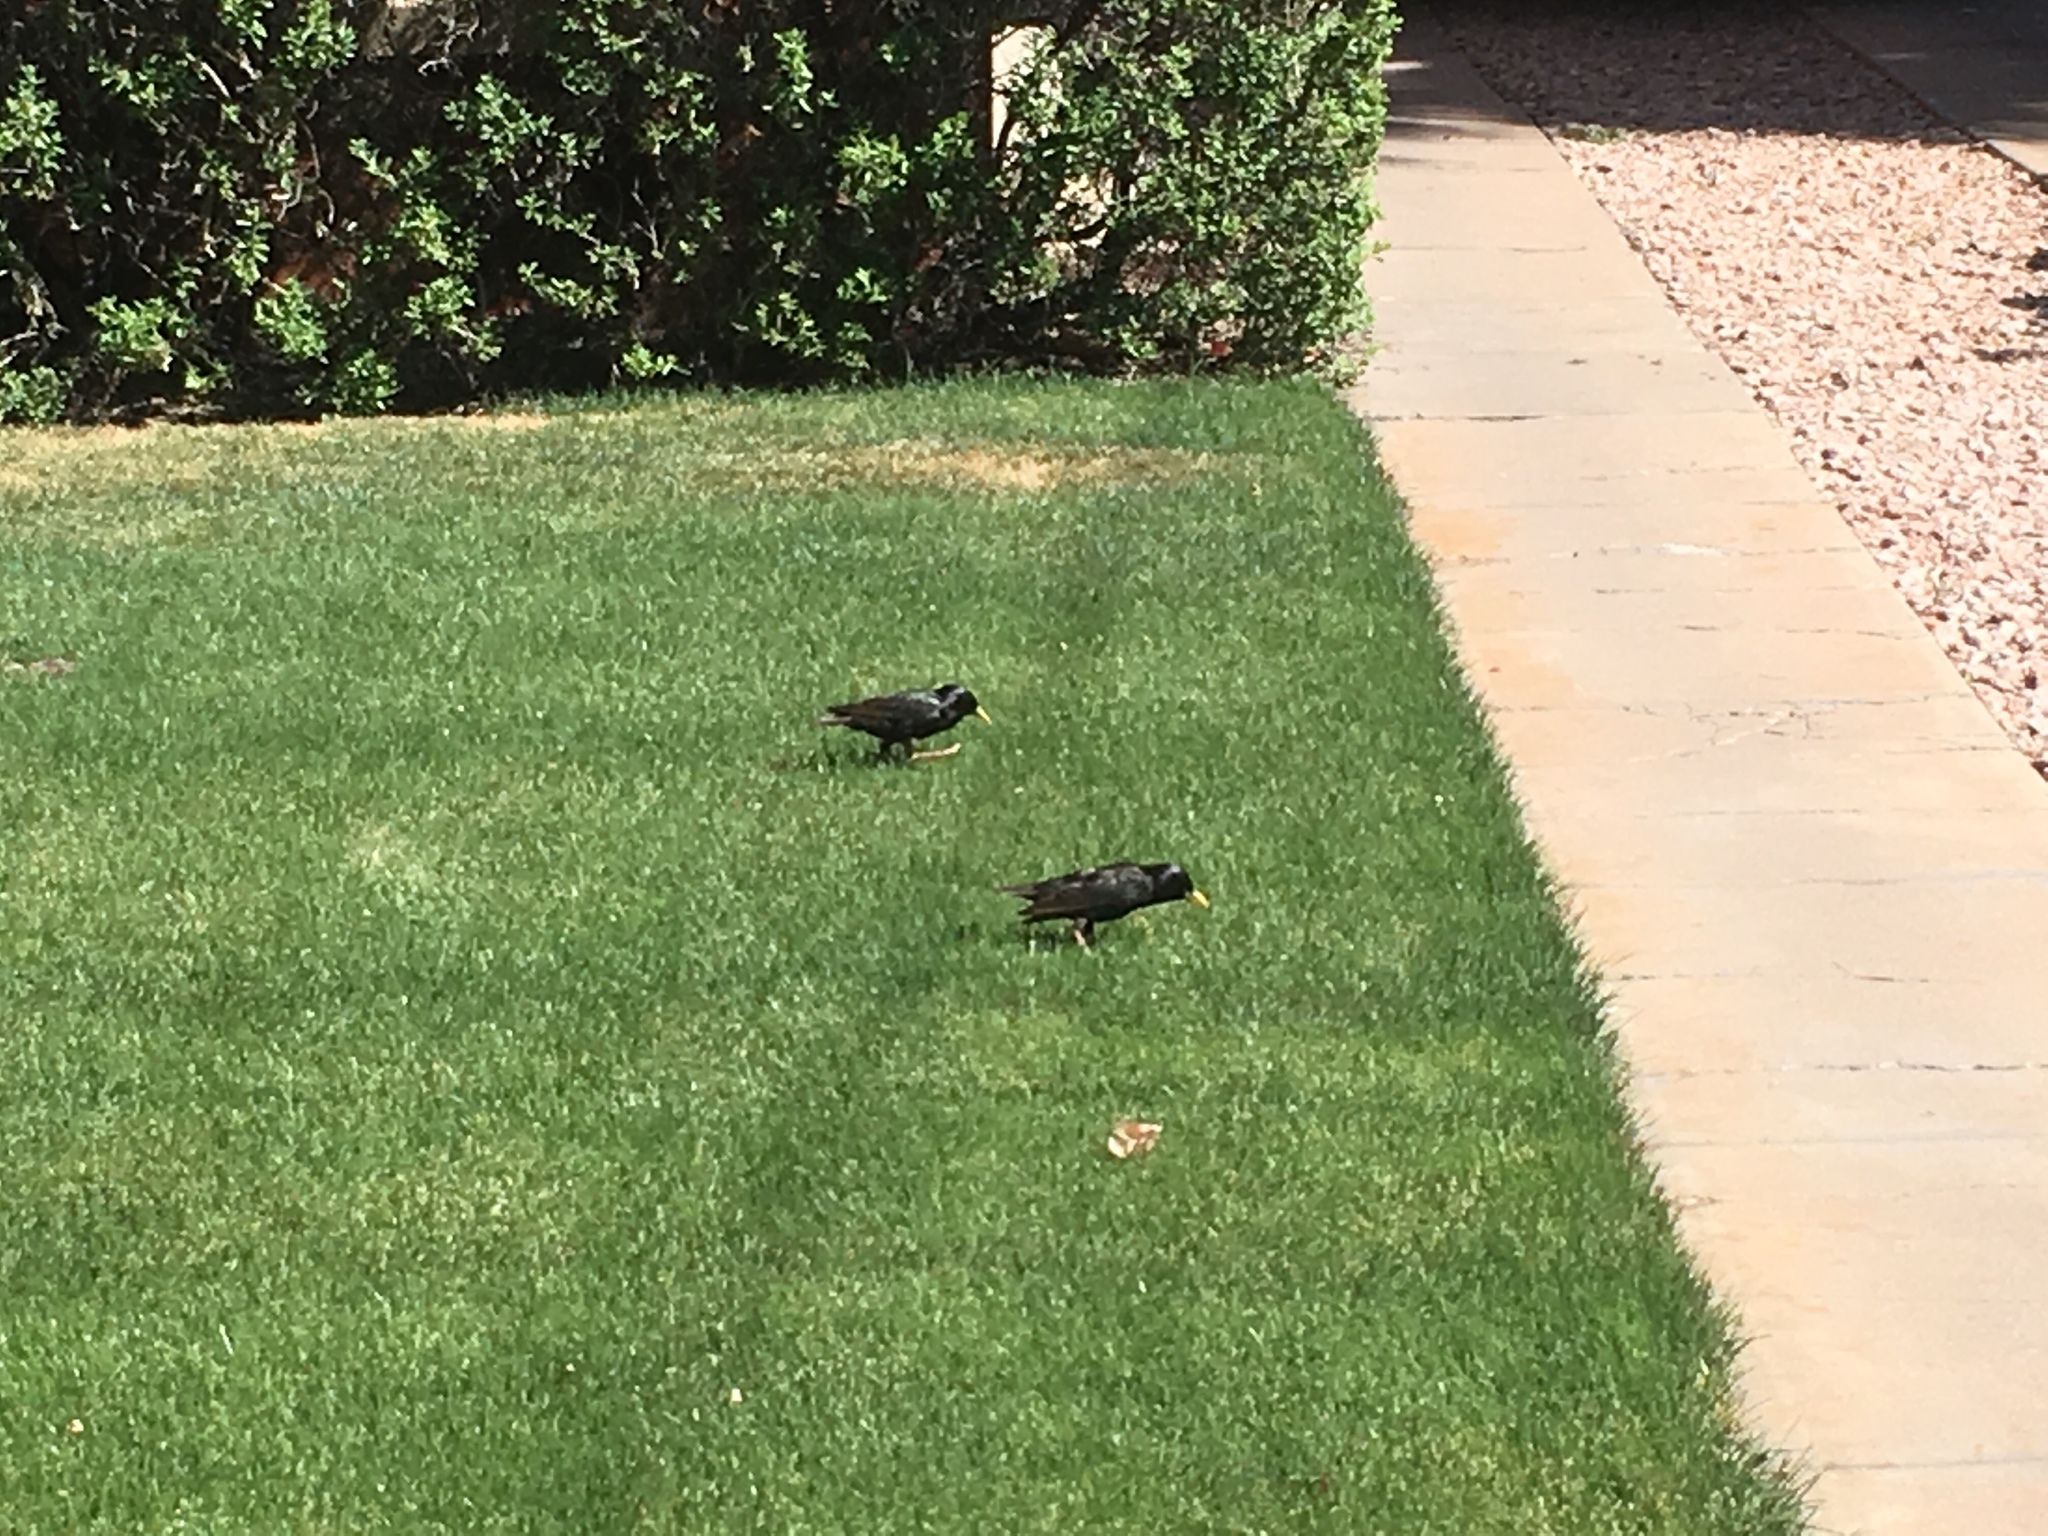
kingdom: Animalia
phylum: Chordata
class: Aves
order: Passeriformes
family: Sturnidae
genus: Sturnus
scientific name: Sturnus vulgaris
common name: Common starling
